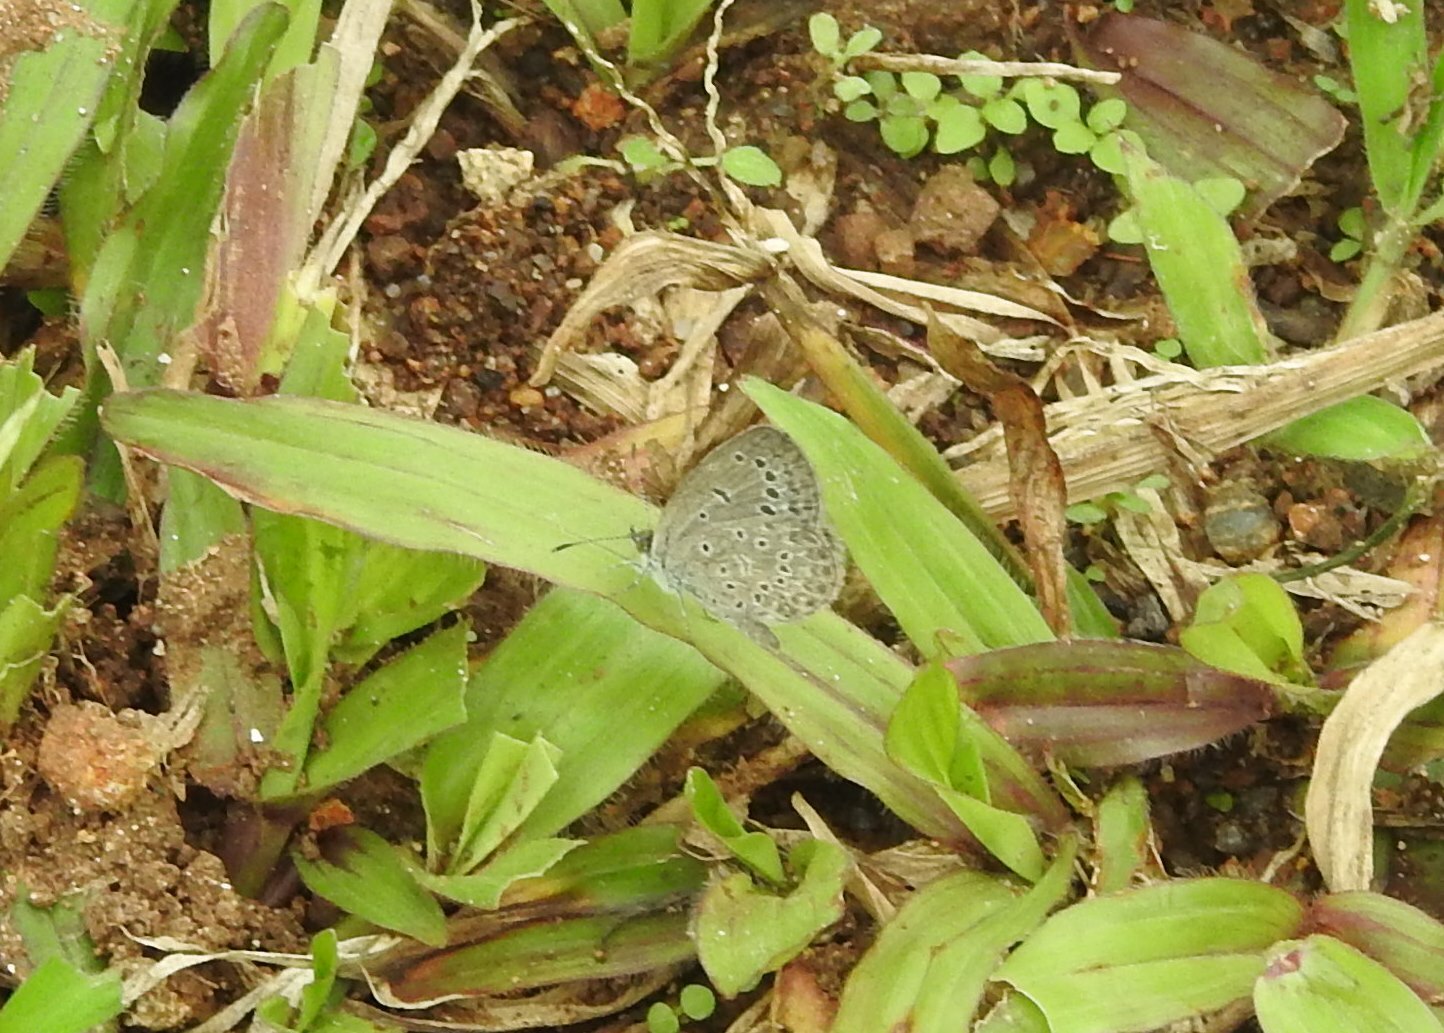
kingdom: Animalia
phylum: Arthropoda
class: Insecta
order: Lepidoptera
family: Lycaenidae
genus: Pseudozizeeria
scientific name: Pseudozizeeria maha
